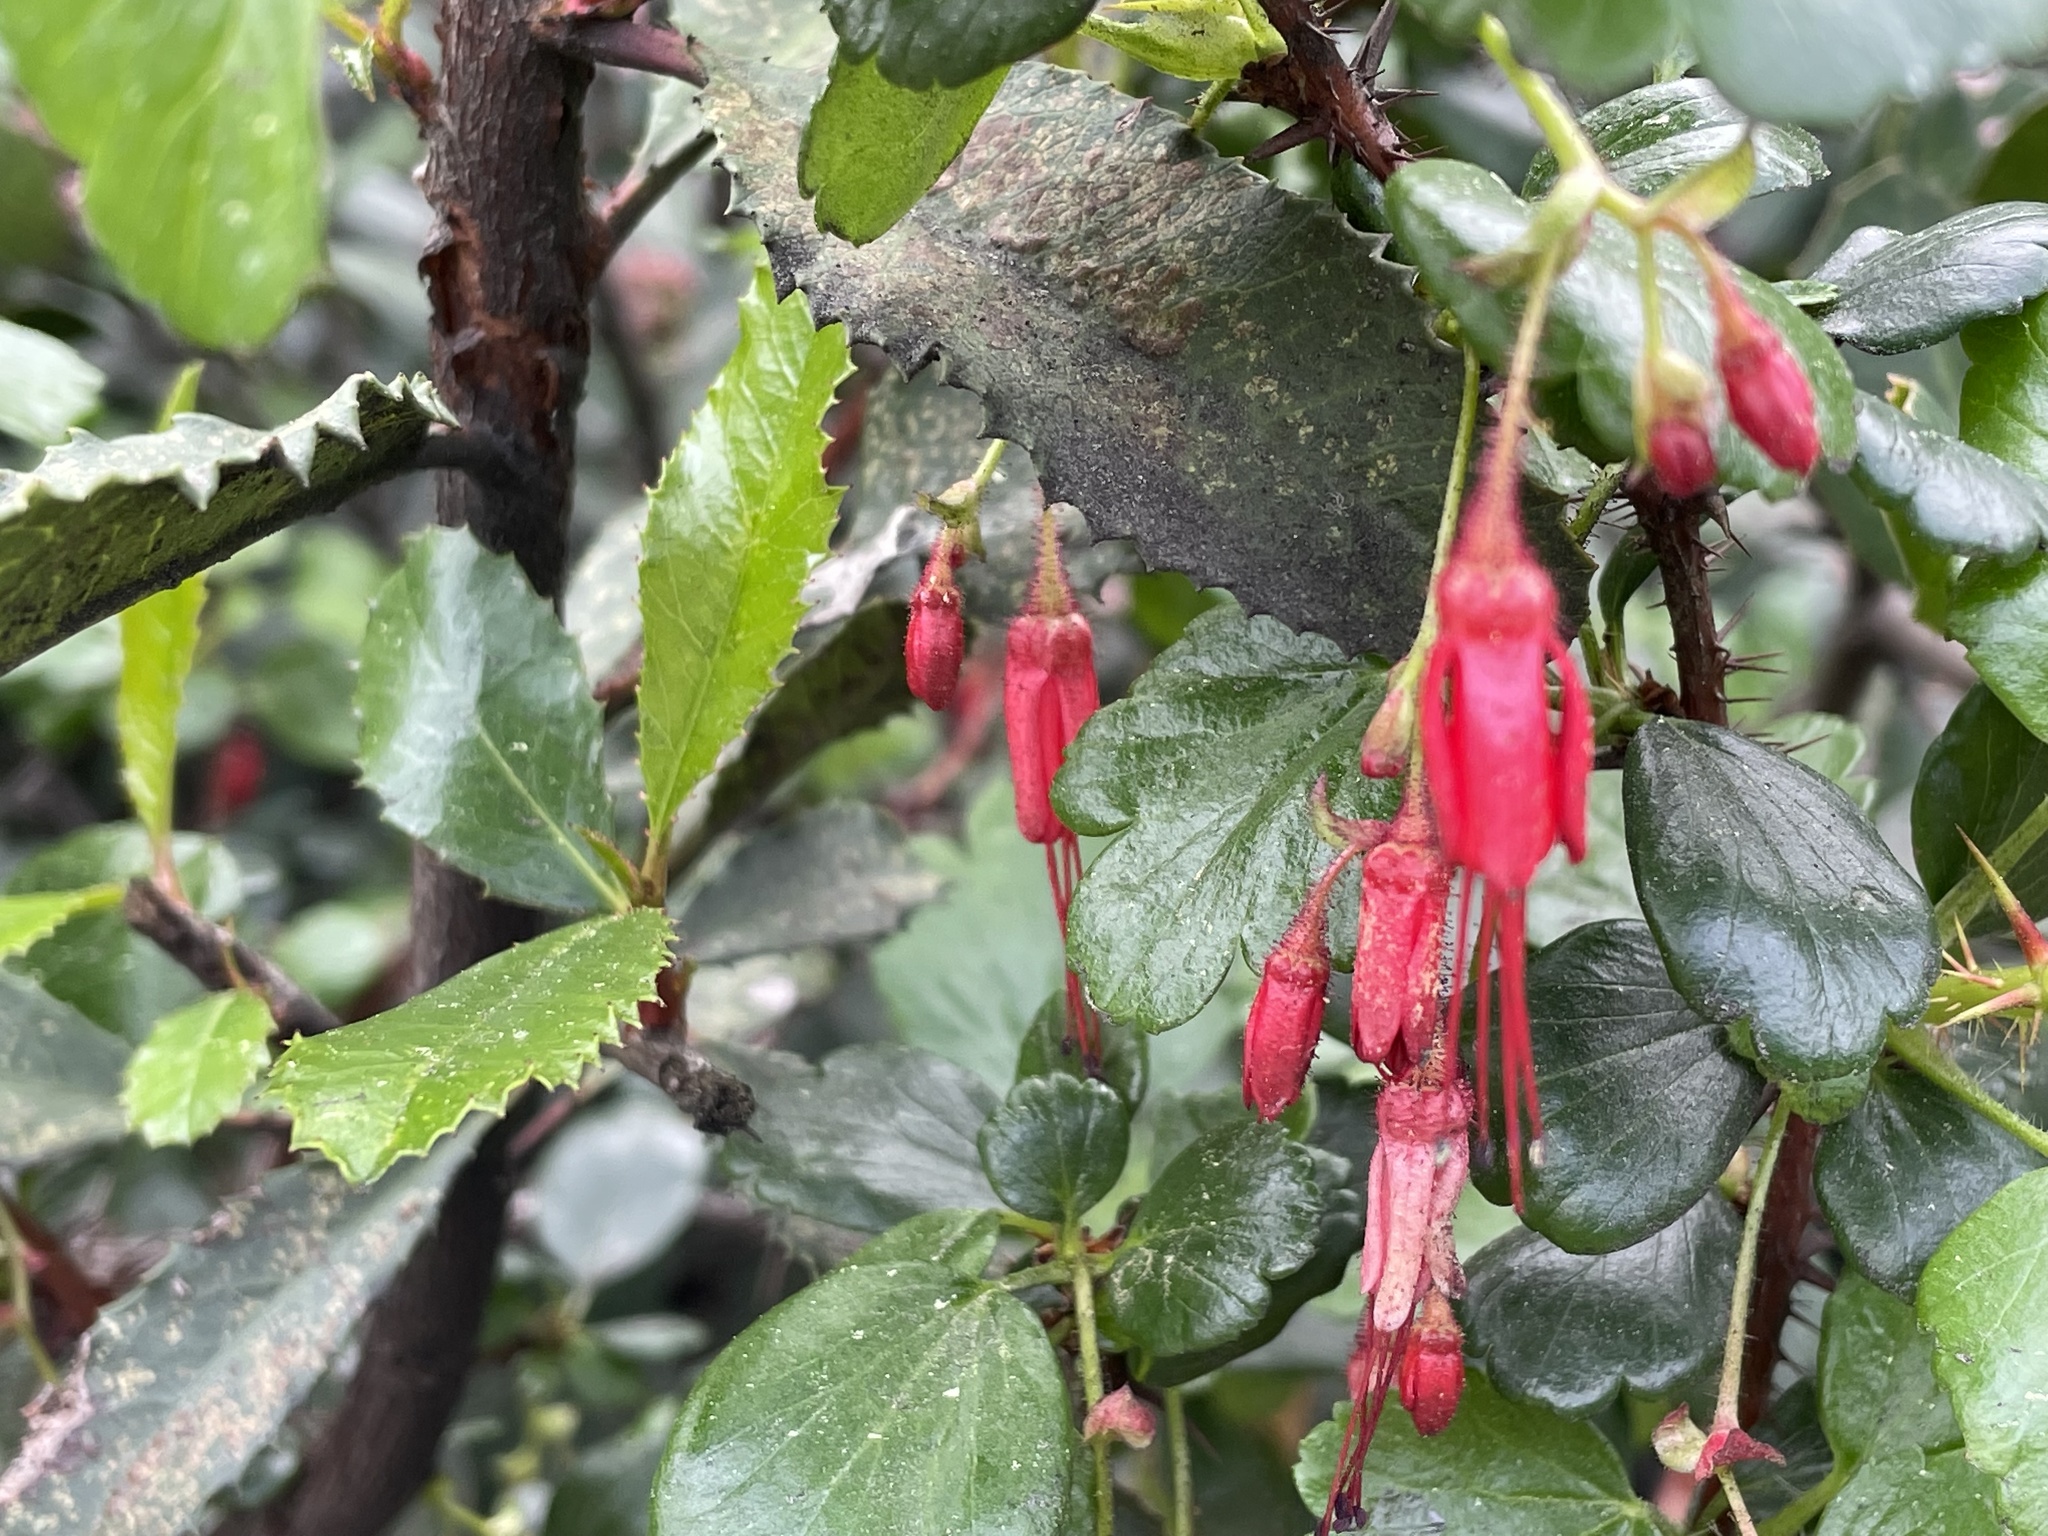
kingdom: Plantae
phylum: Tracheophyta
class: Magnoliopsida
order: Saxifragales
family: Grossulariaceae
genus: Ribes
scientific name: Ribes speciosum
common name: Fuchsia-flower gooseberry
